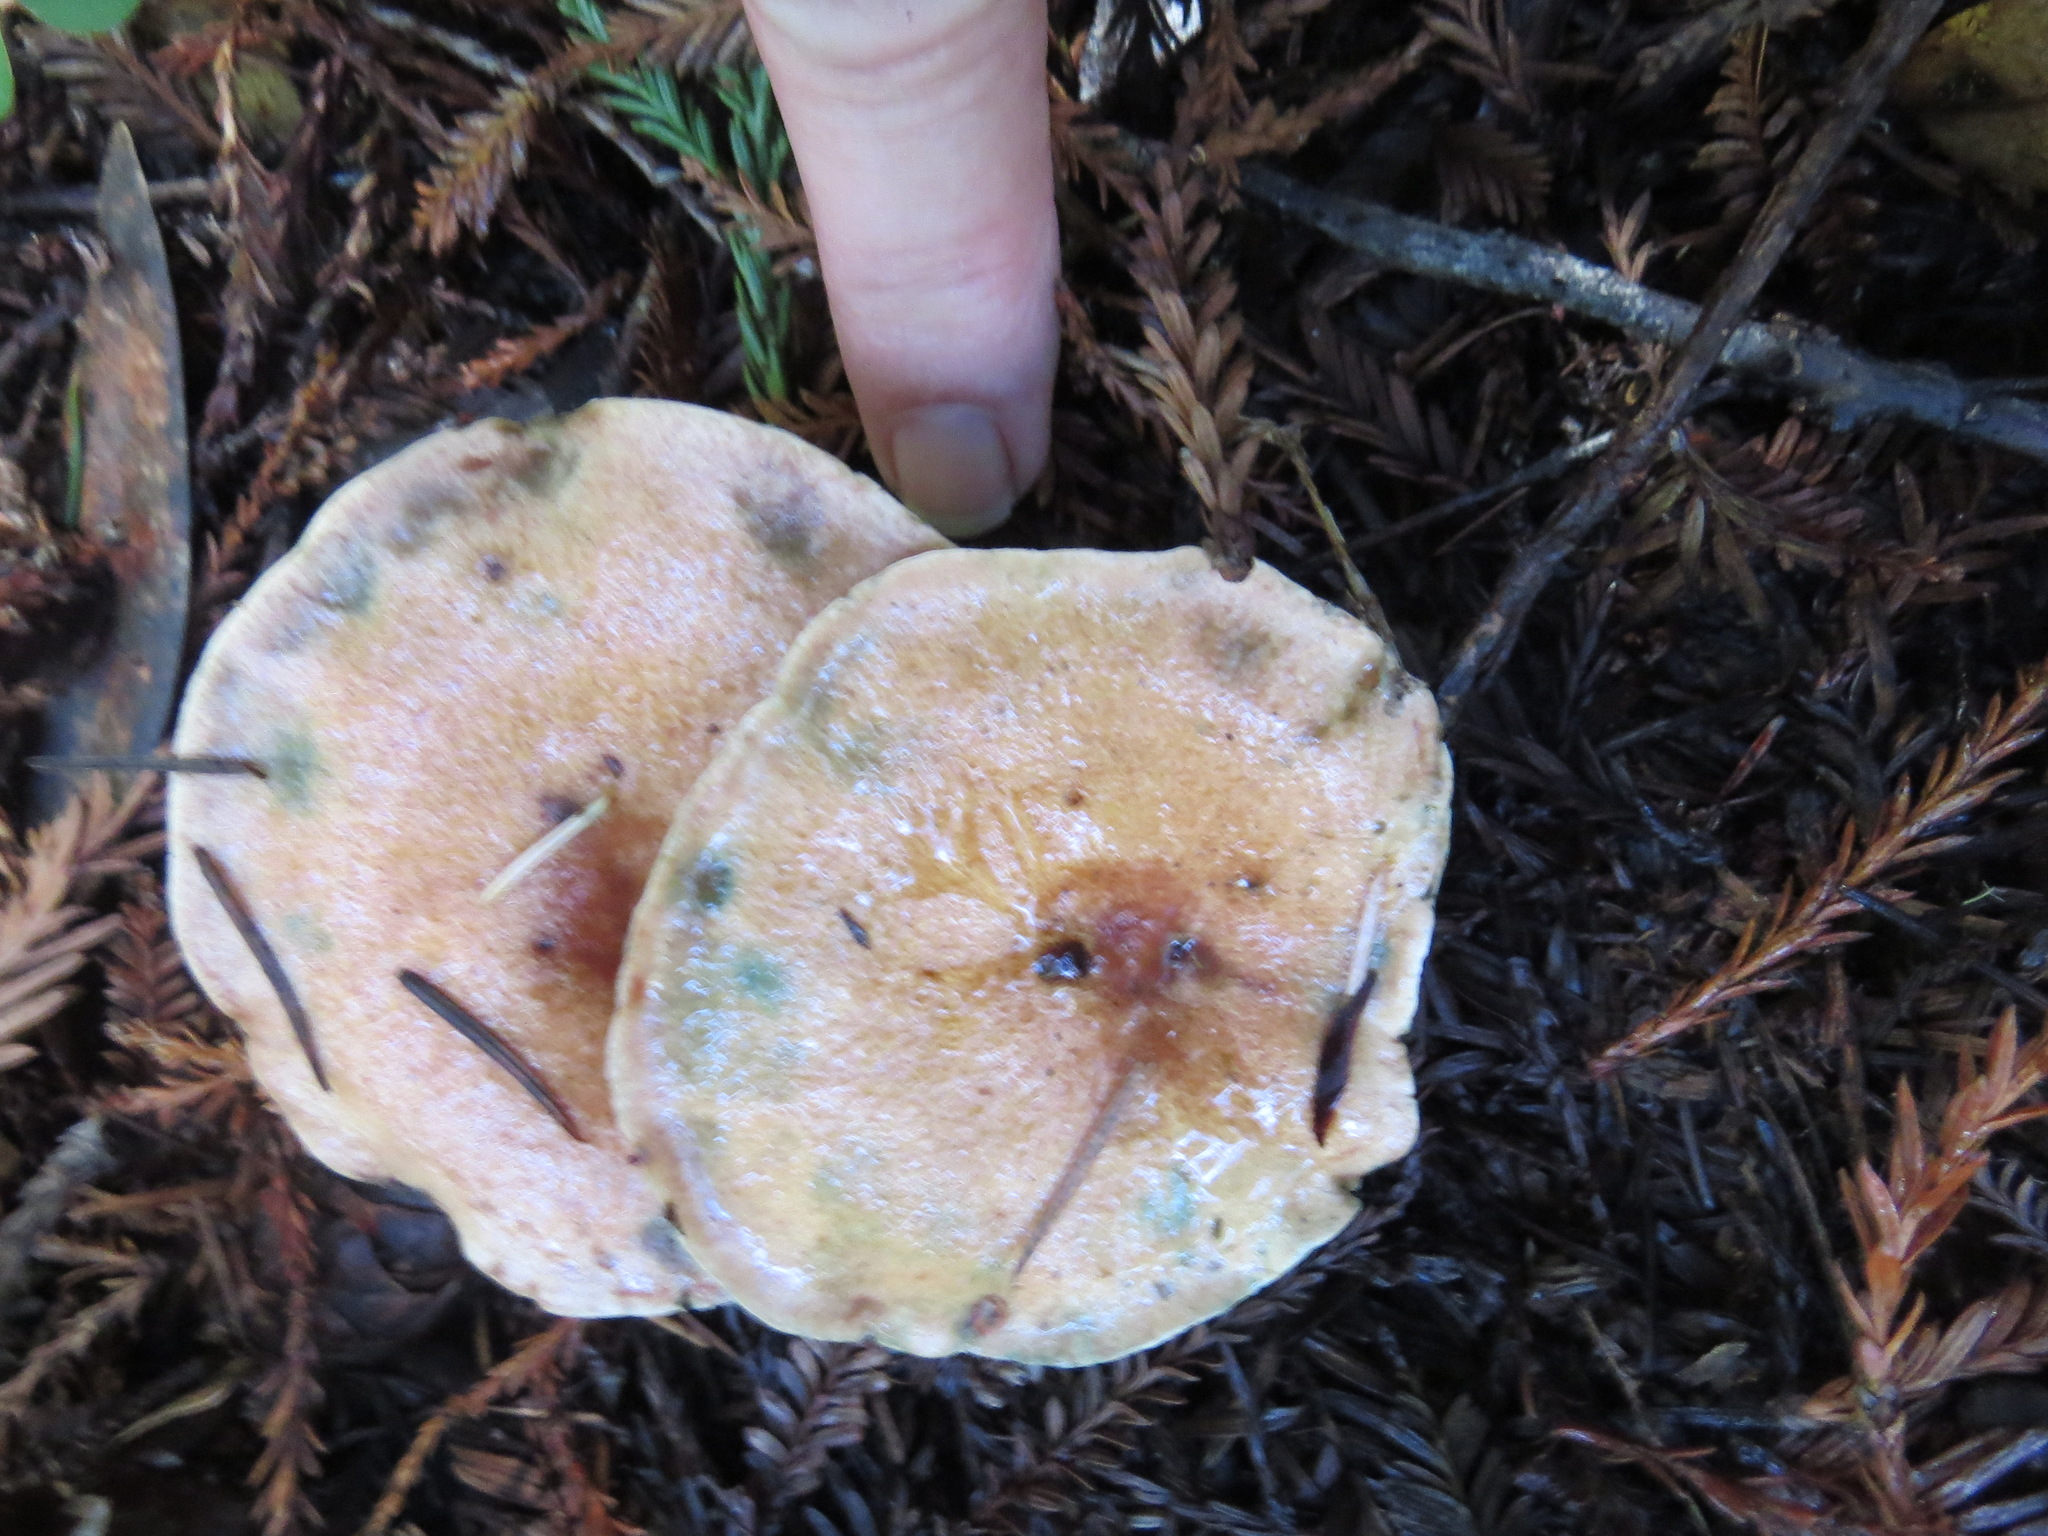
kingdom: Fungi
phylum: Basidiomycota
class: Agaricomycetes
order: Russulales
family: Russulaceae
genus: Lactarius
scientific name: Lactarius rubrilacteus
